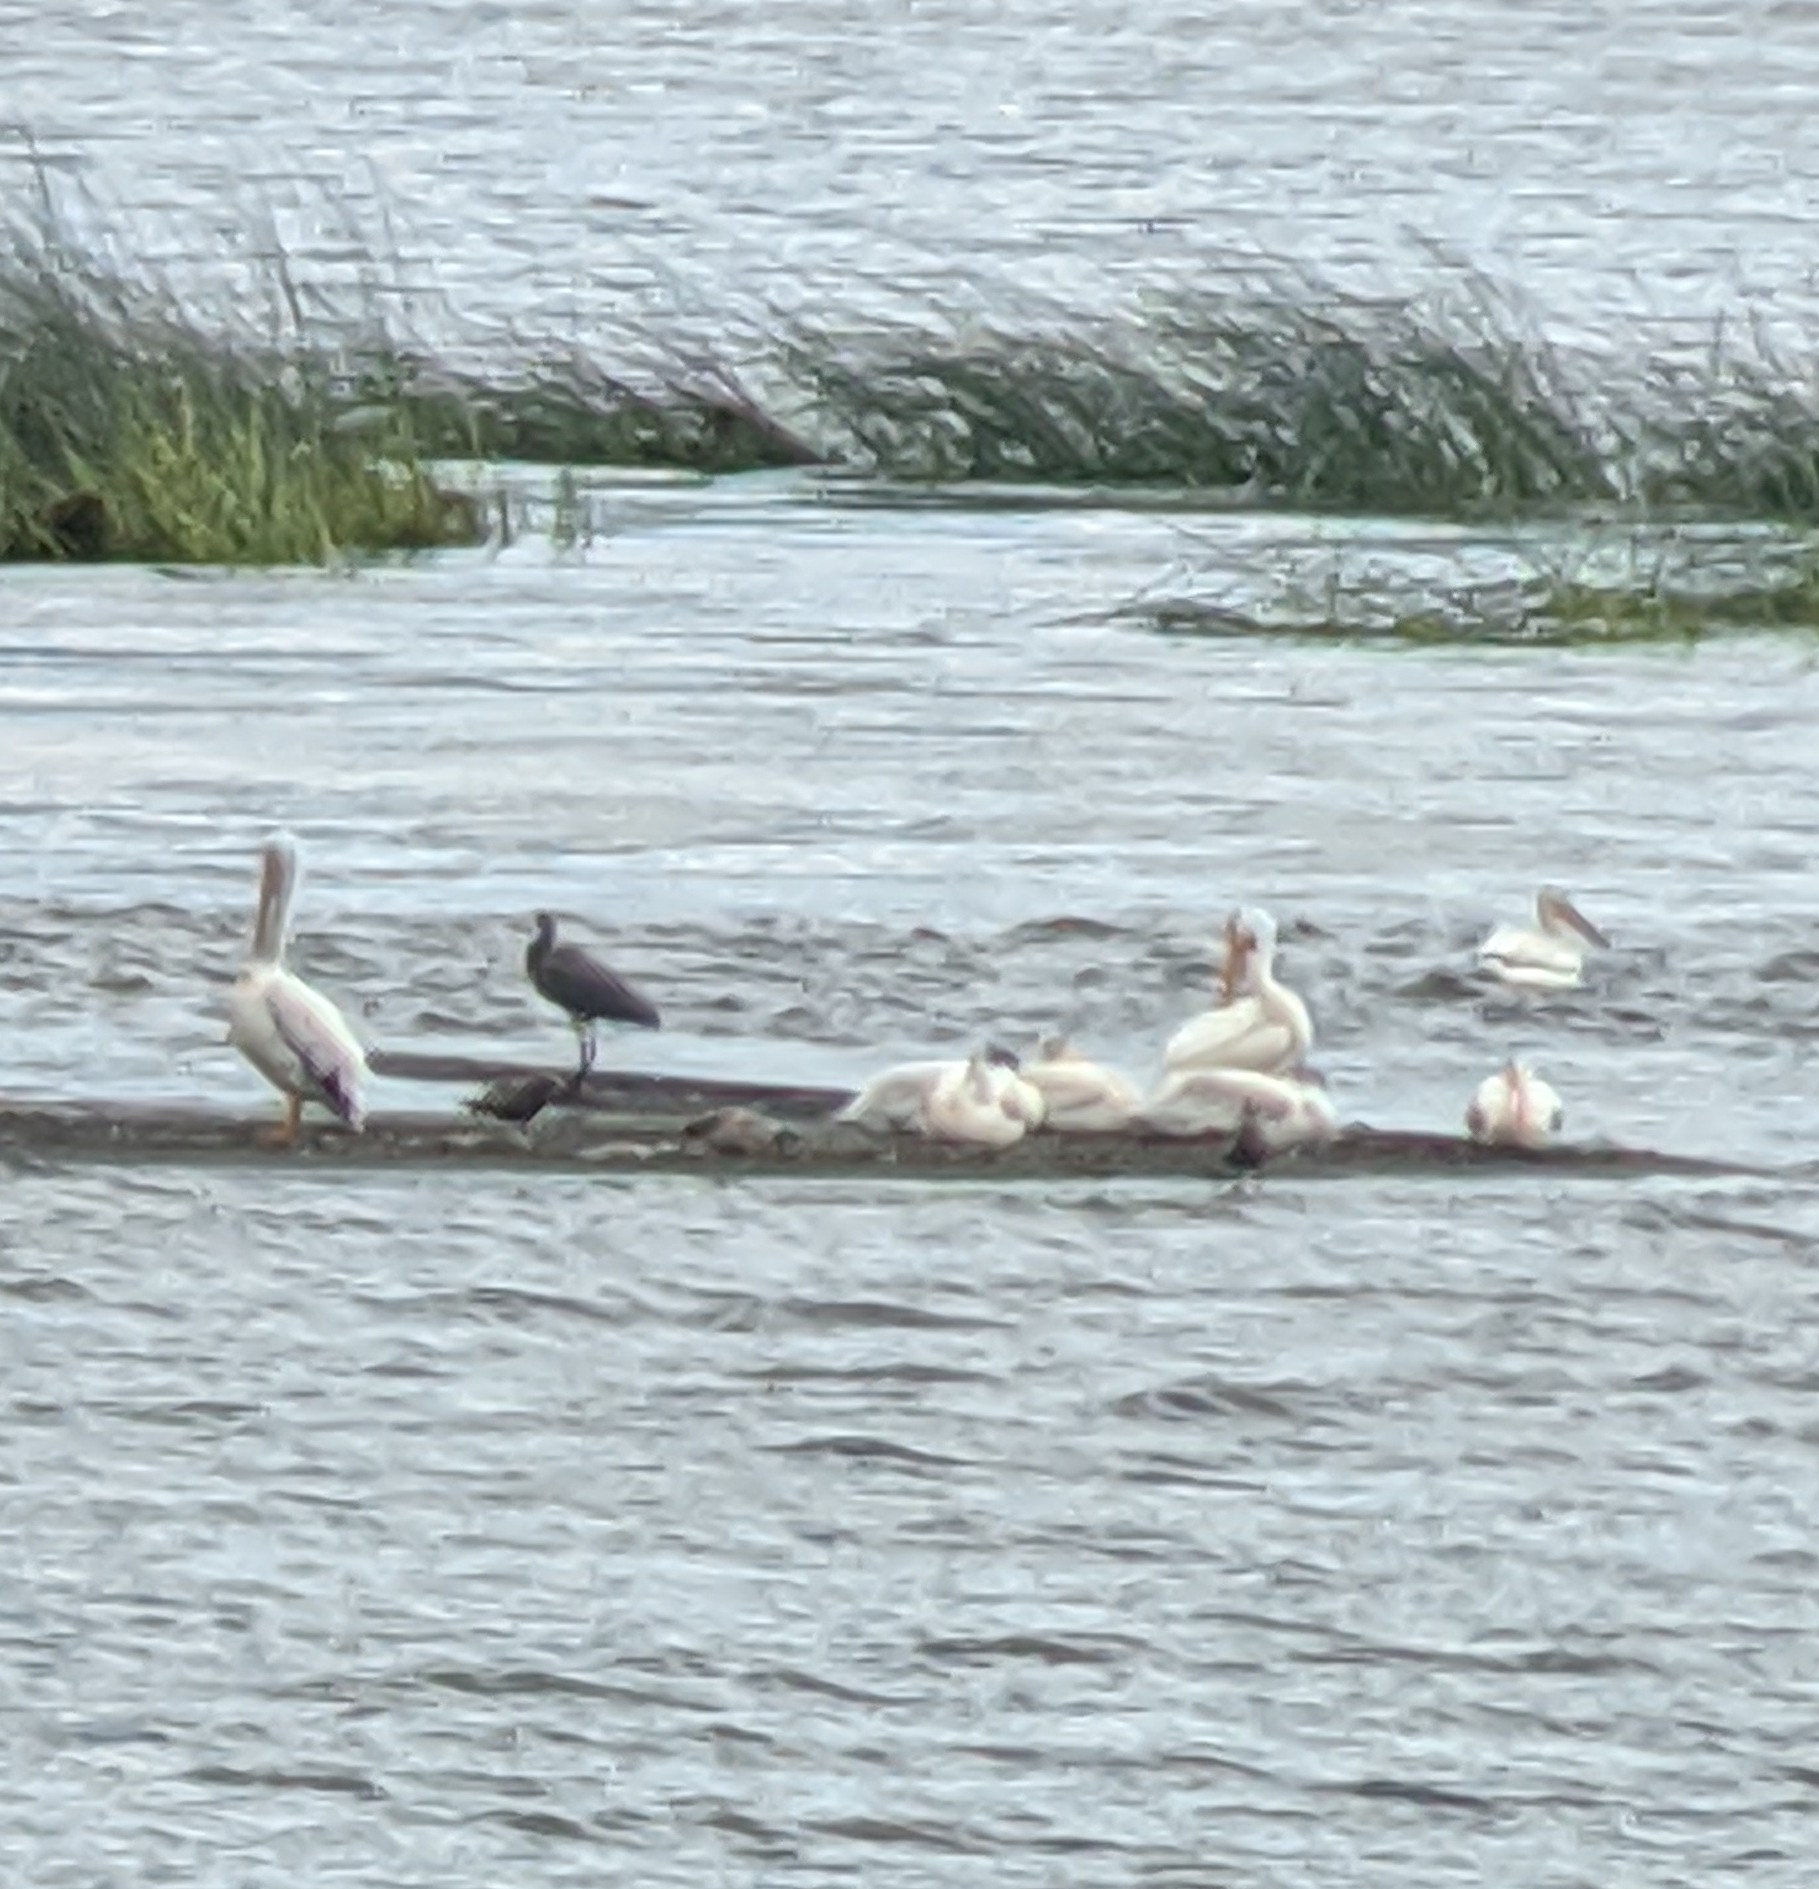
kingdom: Animalia
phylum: Chordata
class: Aves
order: Pelecaniformes
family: Pelecanidae
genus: Pelecanus
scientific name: Pelecanus erythrorhynchos
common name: American white pelican
